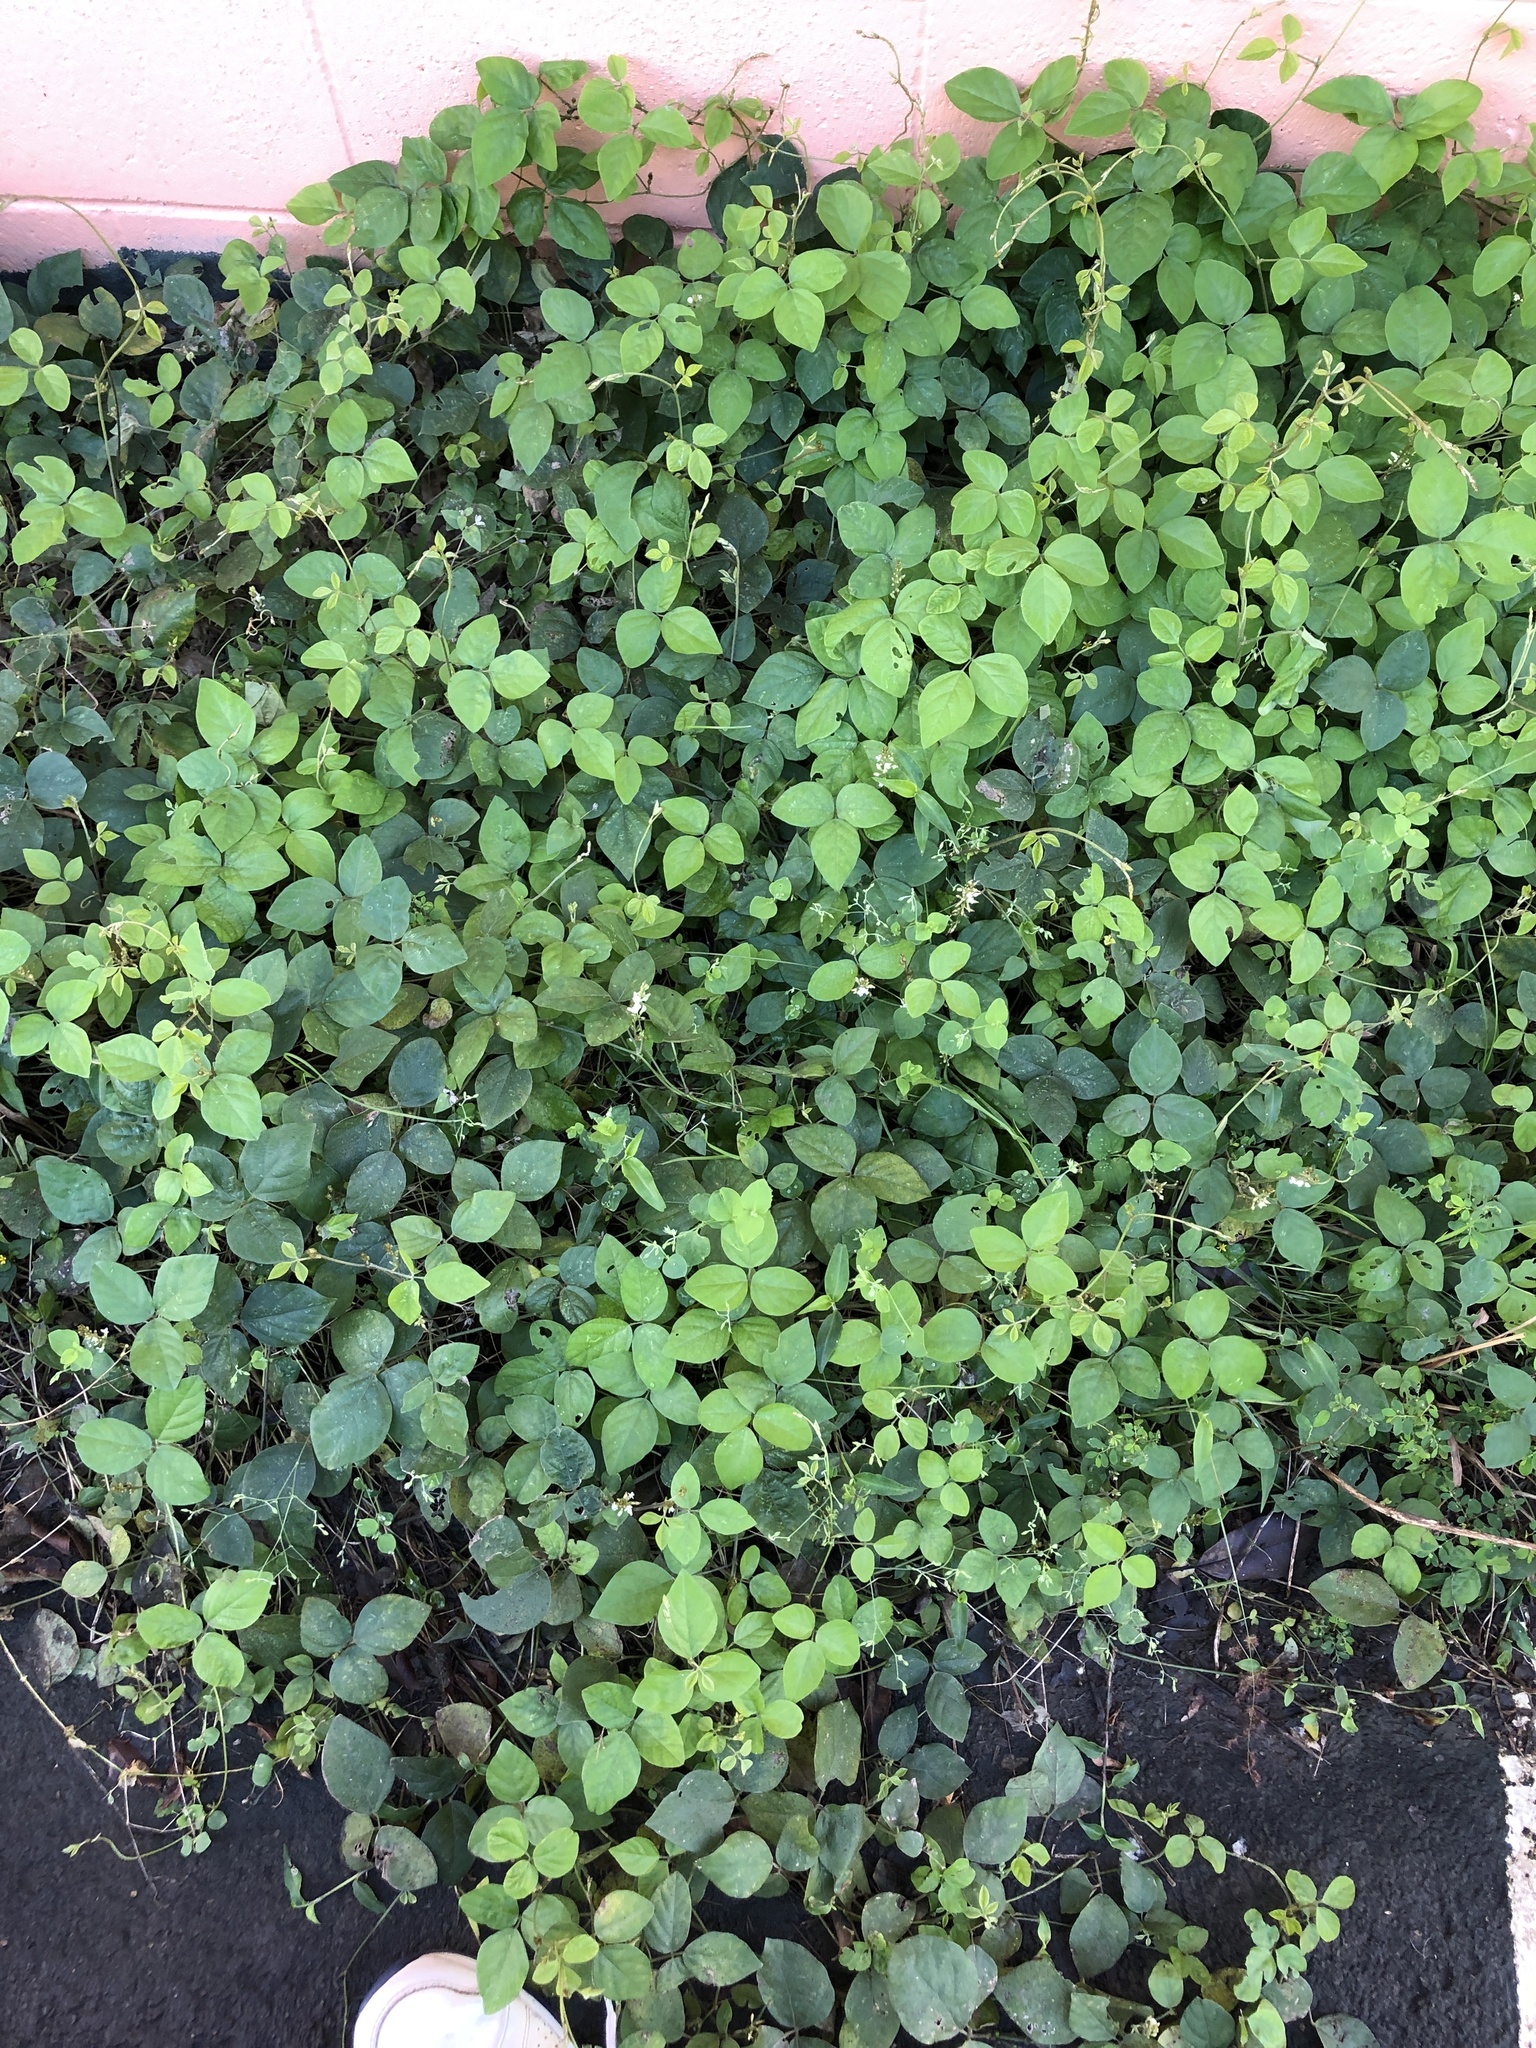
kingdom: Plantae
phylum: Tracheophyta
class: Magnoliopsida
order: Fabales
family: Fabaceae
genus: Neonotonia
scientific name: Neonotonia wightii
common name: Perennial soybean
